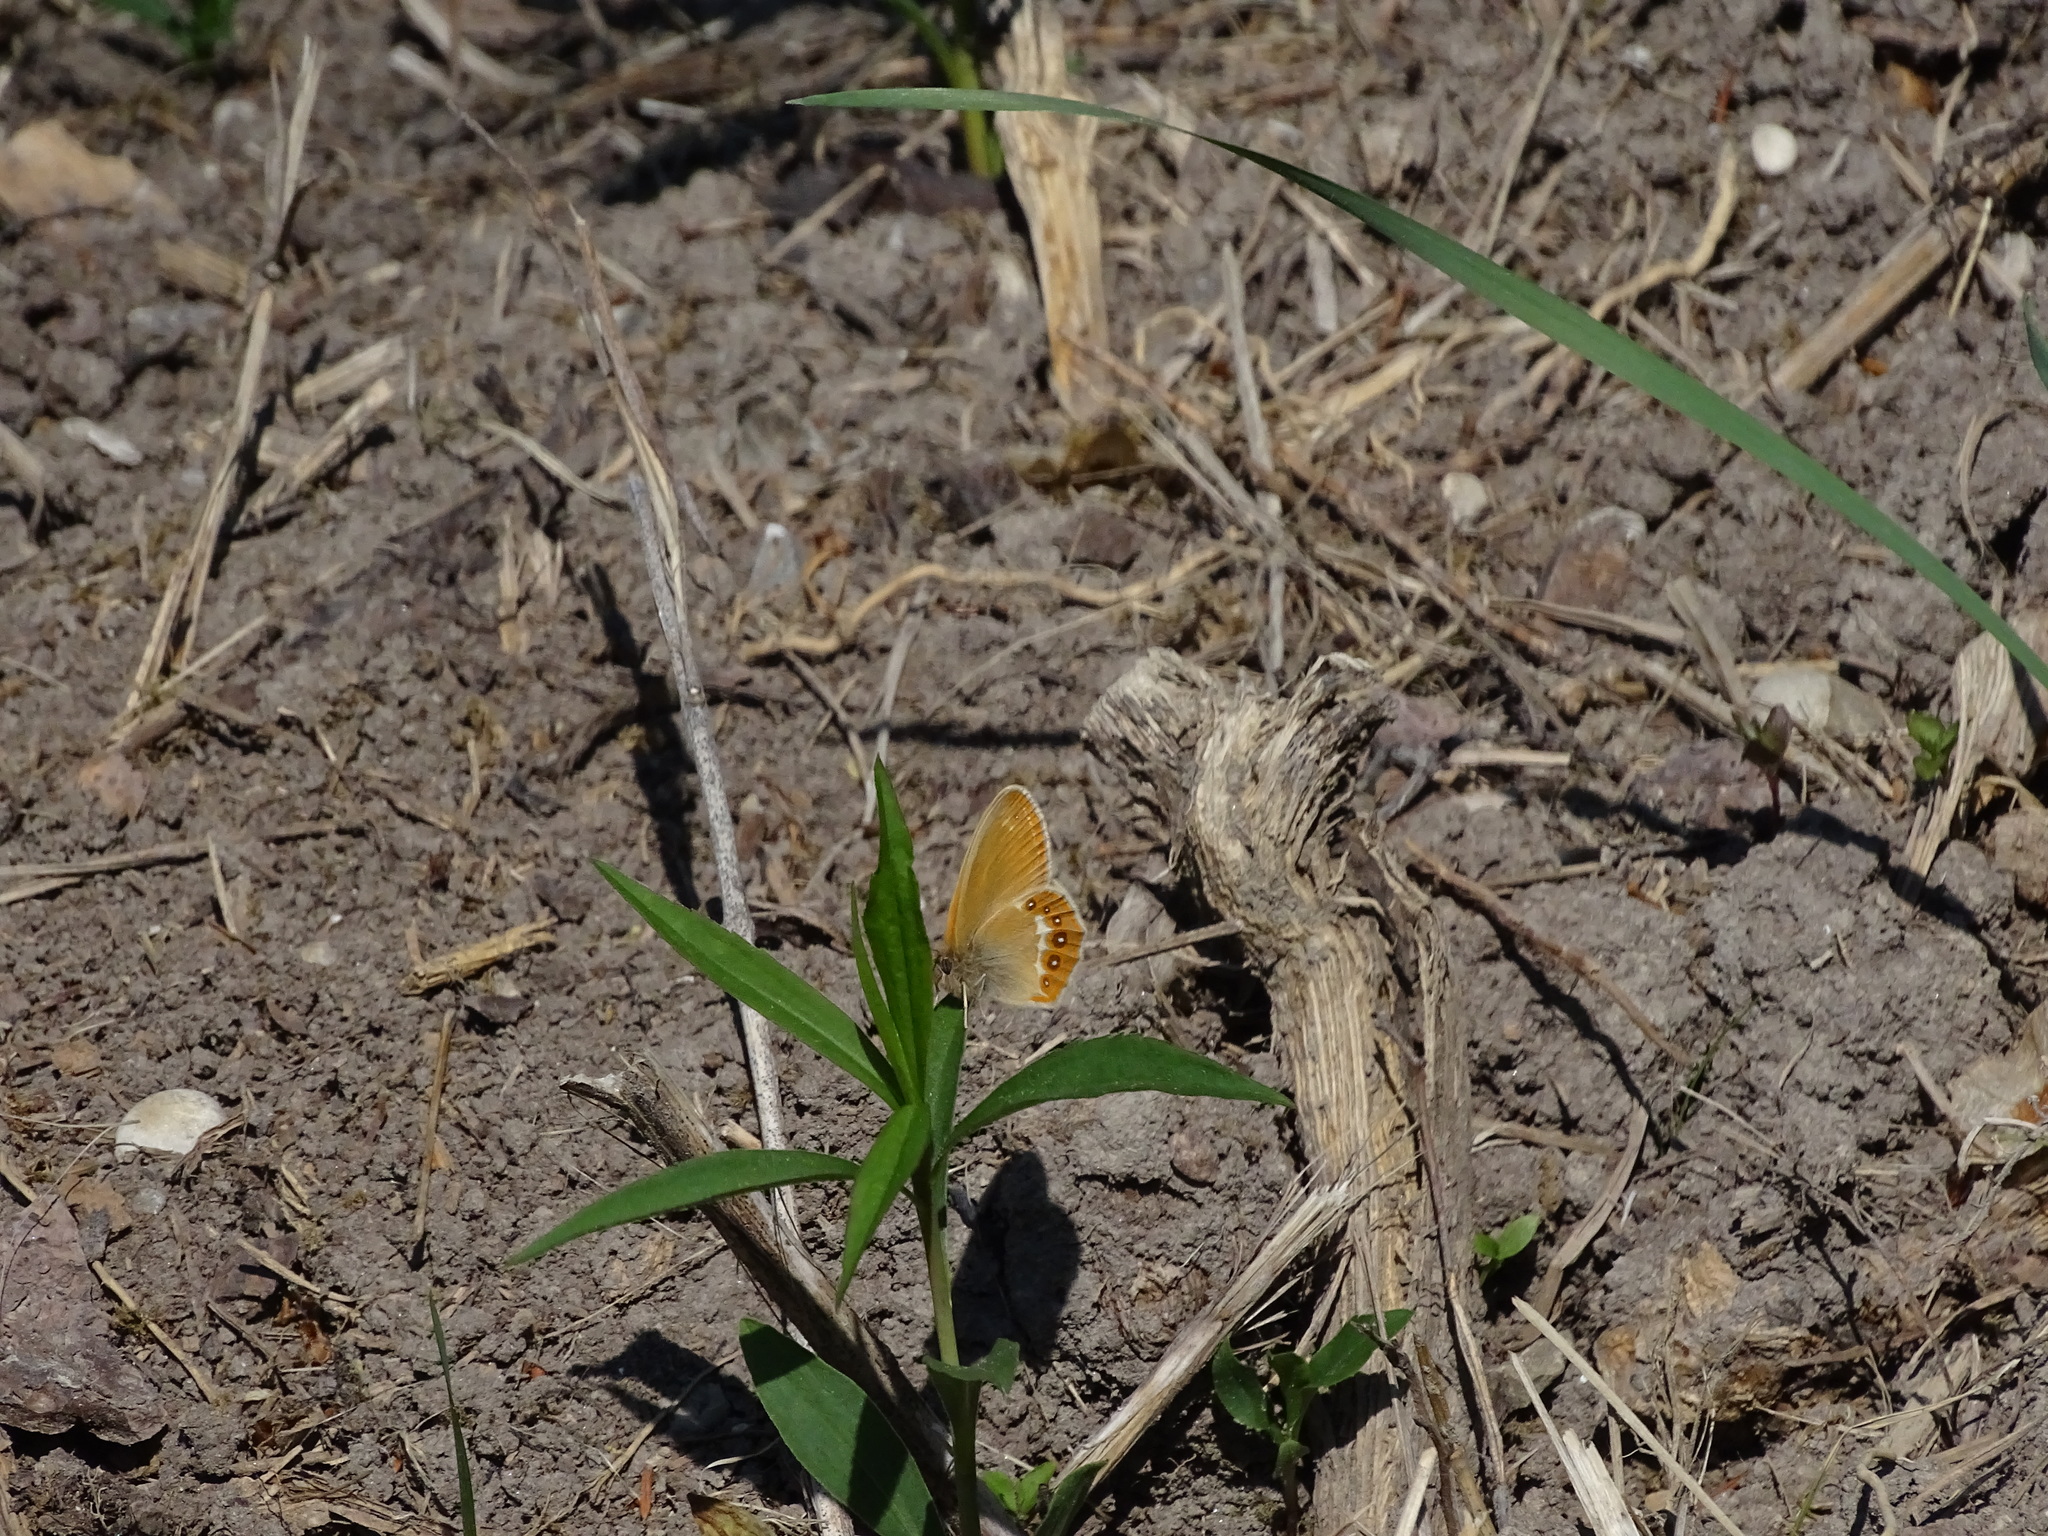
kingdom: Animalia
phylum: Arthropoda
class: Insecta
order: Lepidoptera
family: Nymphalidae
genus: Coenonympha
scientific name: Coenonympha hero
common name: Scarce heath
